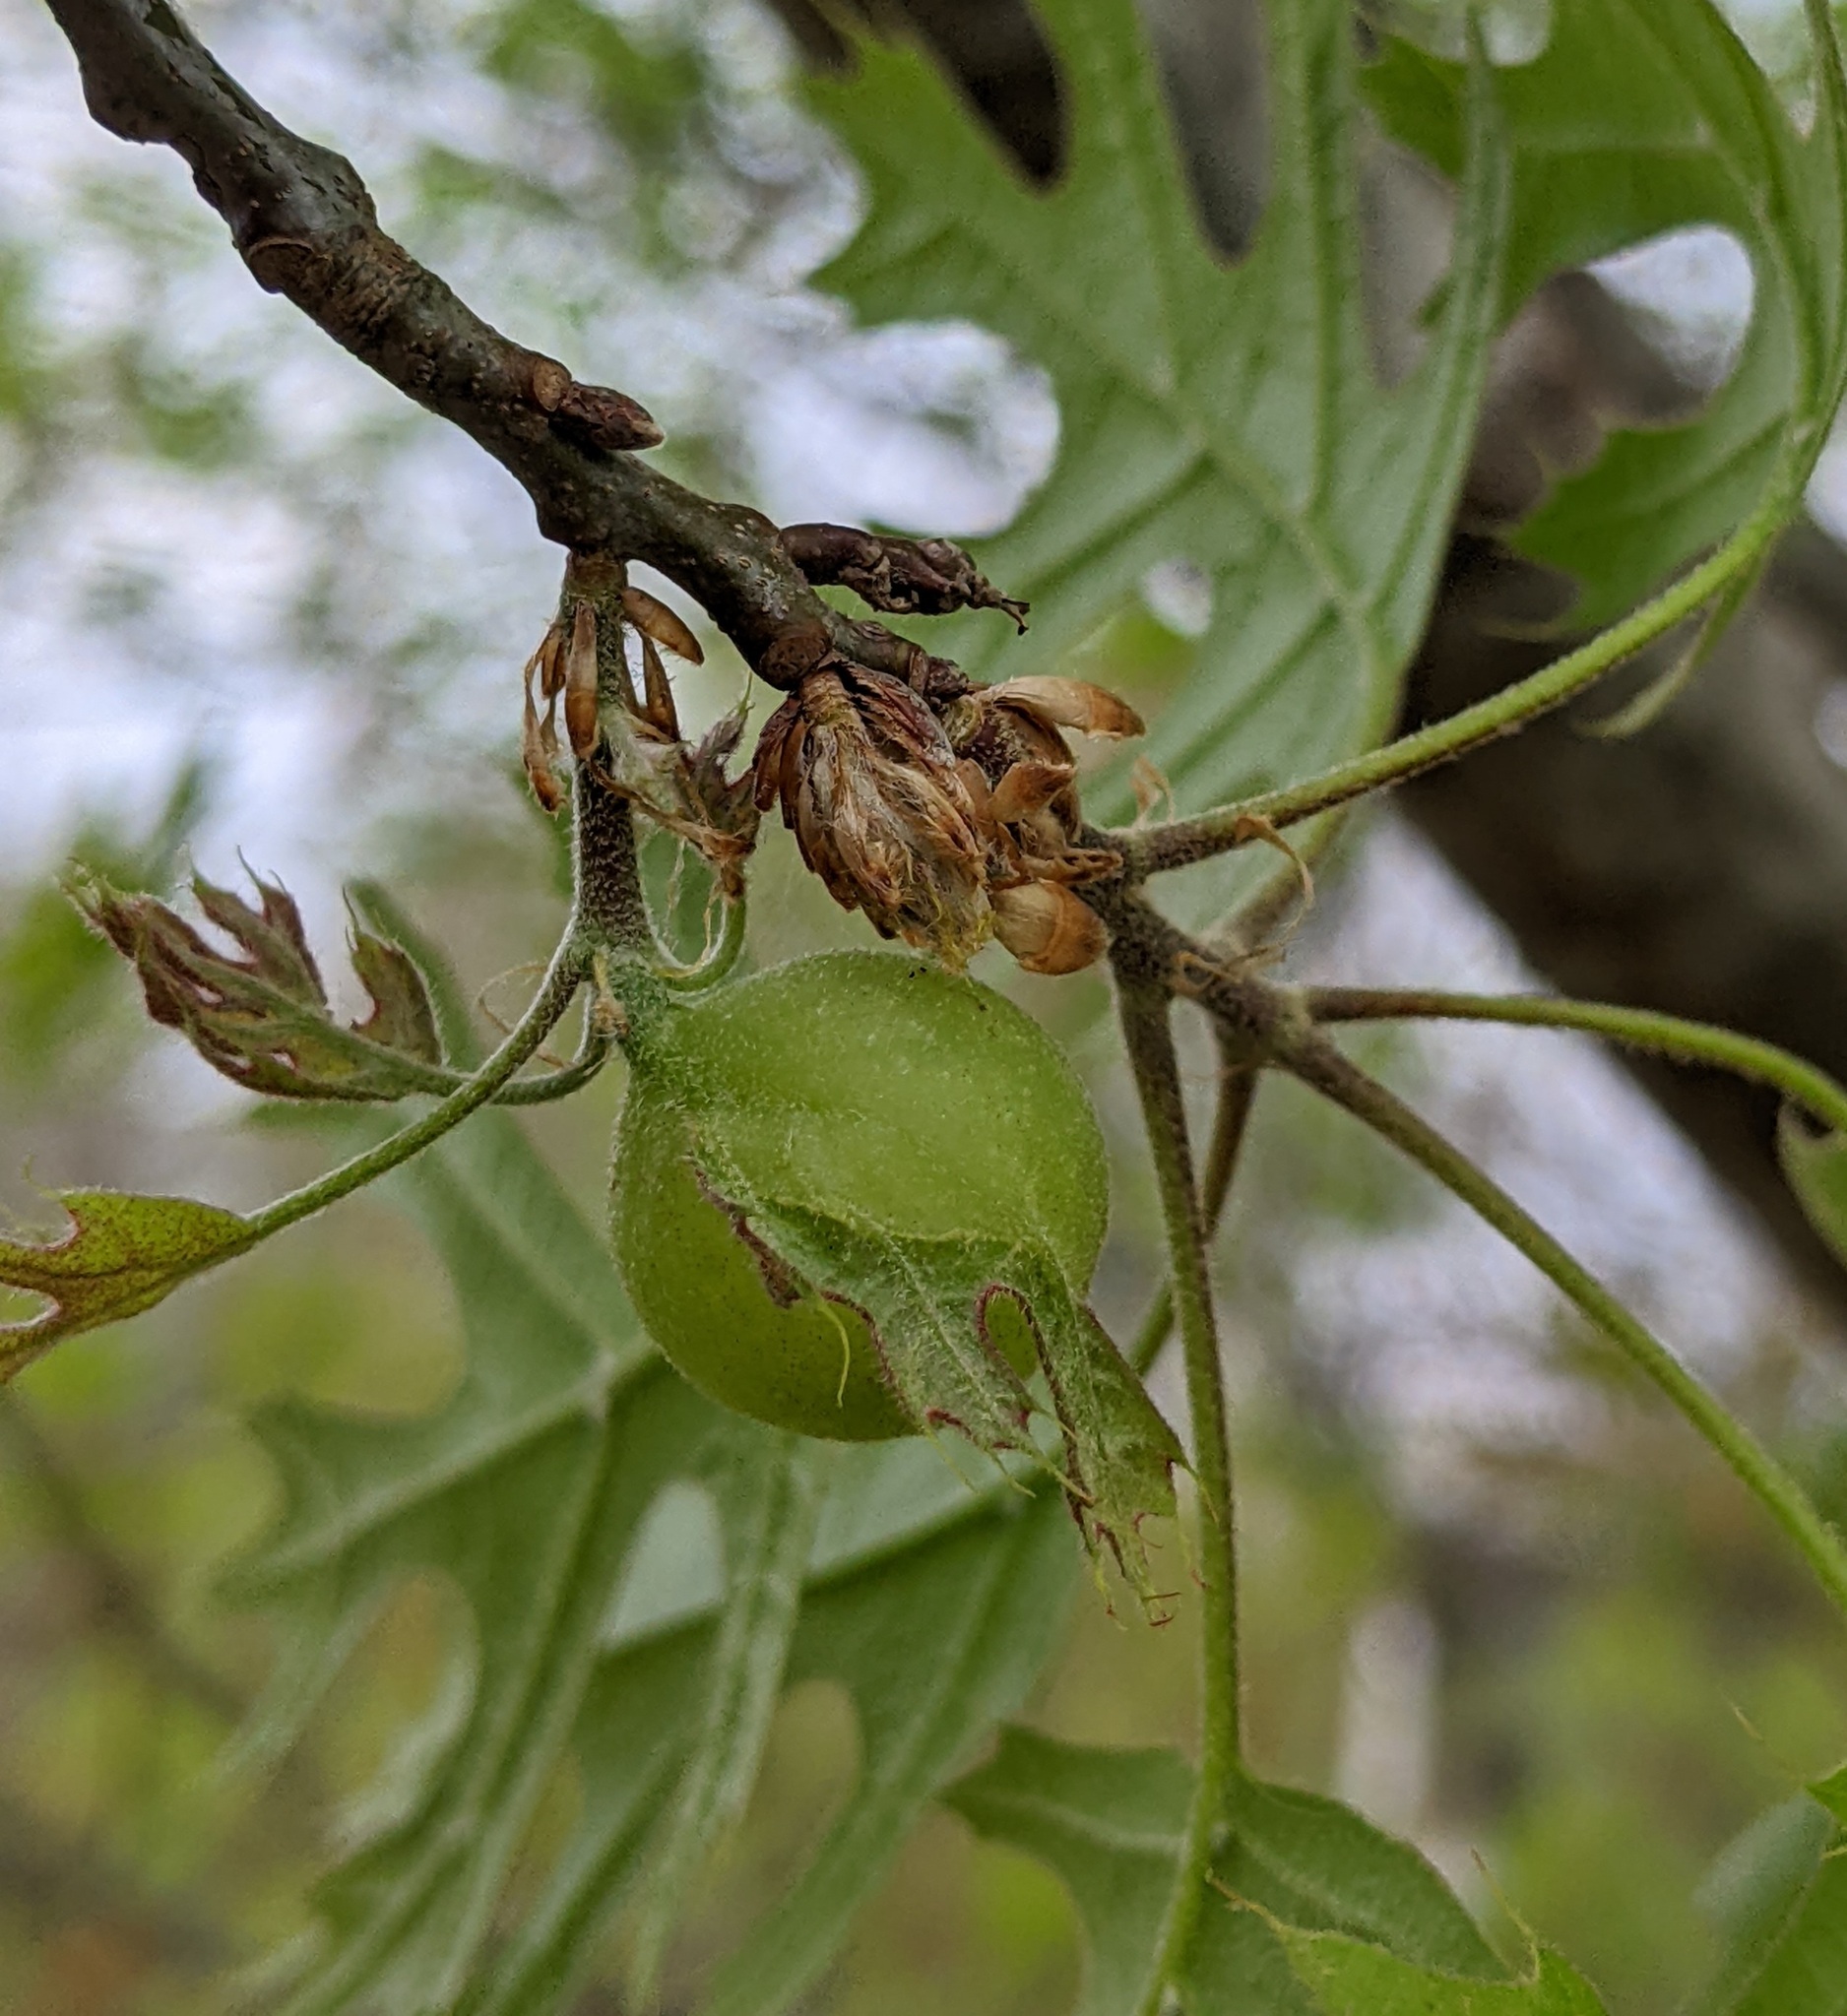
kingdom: Animalia
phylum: Arthropoda
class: Insecta
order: Hymenoptera
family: Cynipidae
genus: Dryocosmus
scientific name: Dryocosmus quercuspalustris
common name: Succulent oak gall wasp
